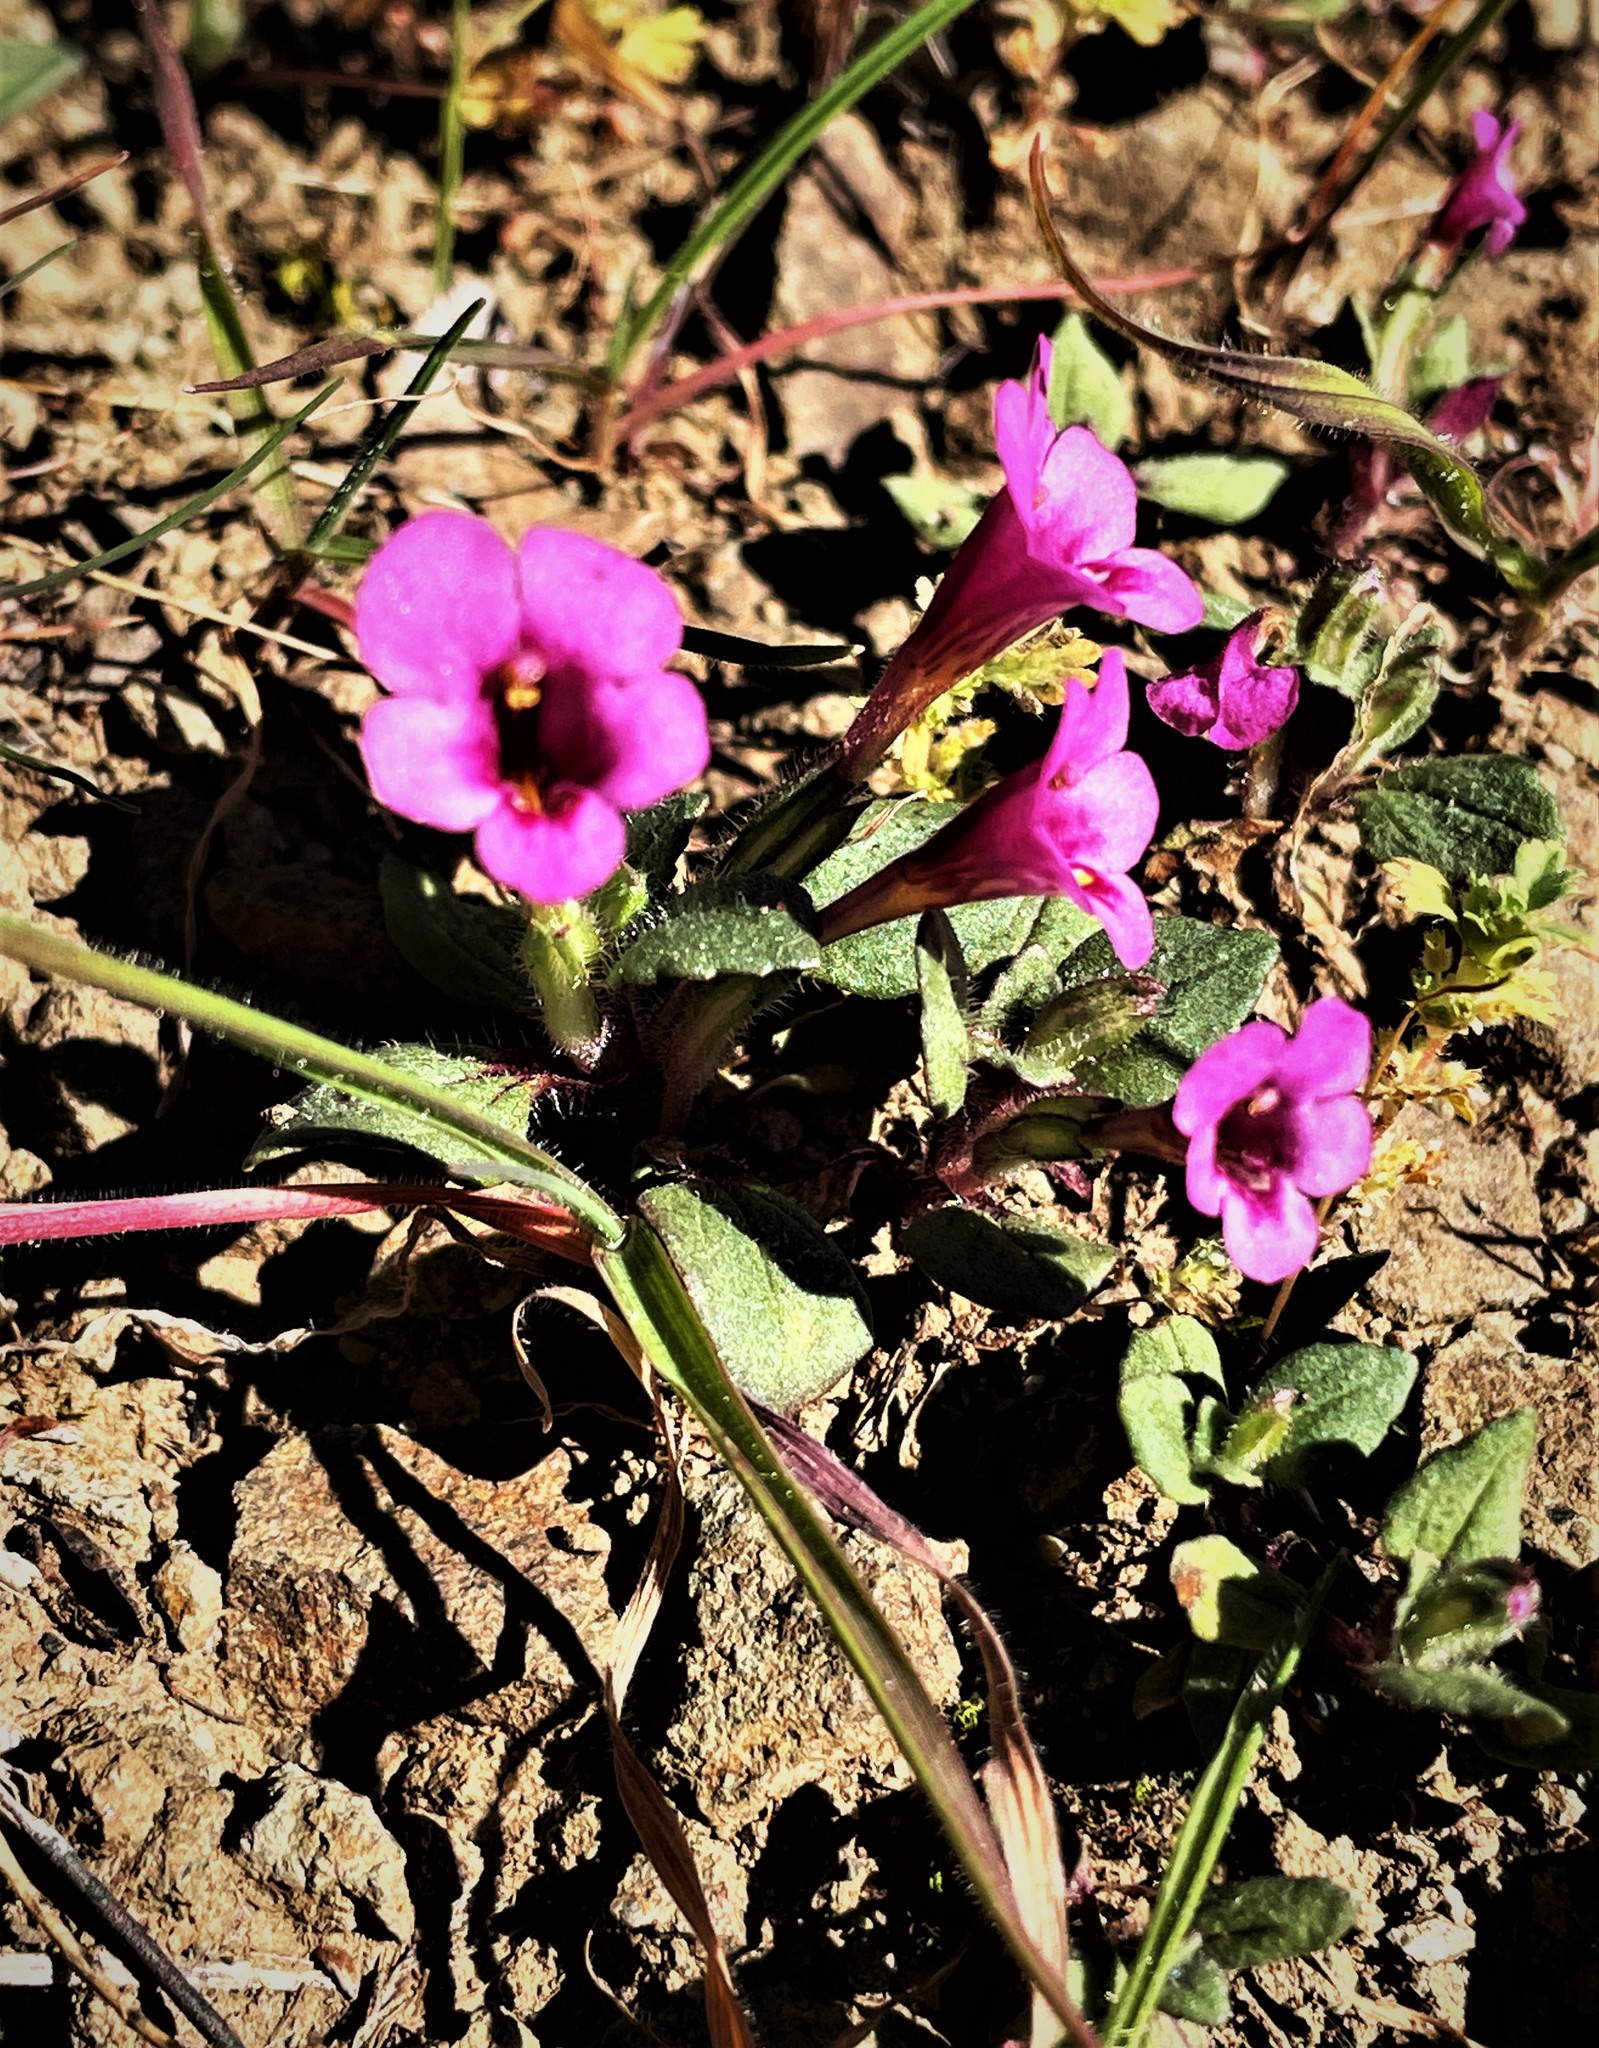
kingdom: Plantae
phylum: Tracheophyta
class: Magnoliopsida
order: Lamiales
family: Phrymaceae
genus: Diplacus
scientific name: Diplacus congdonii
